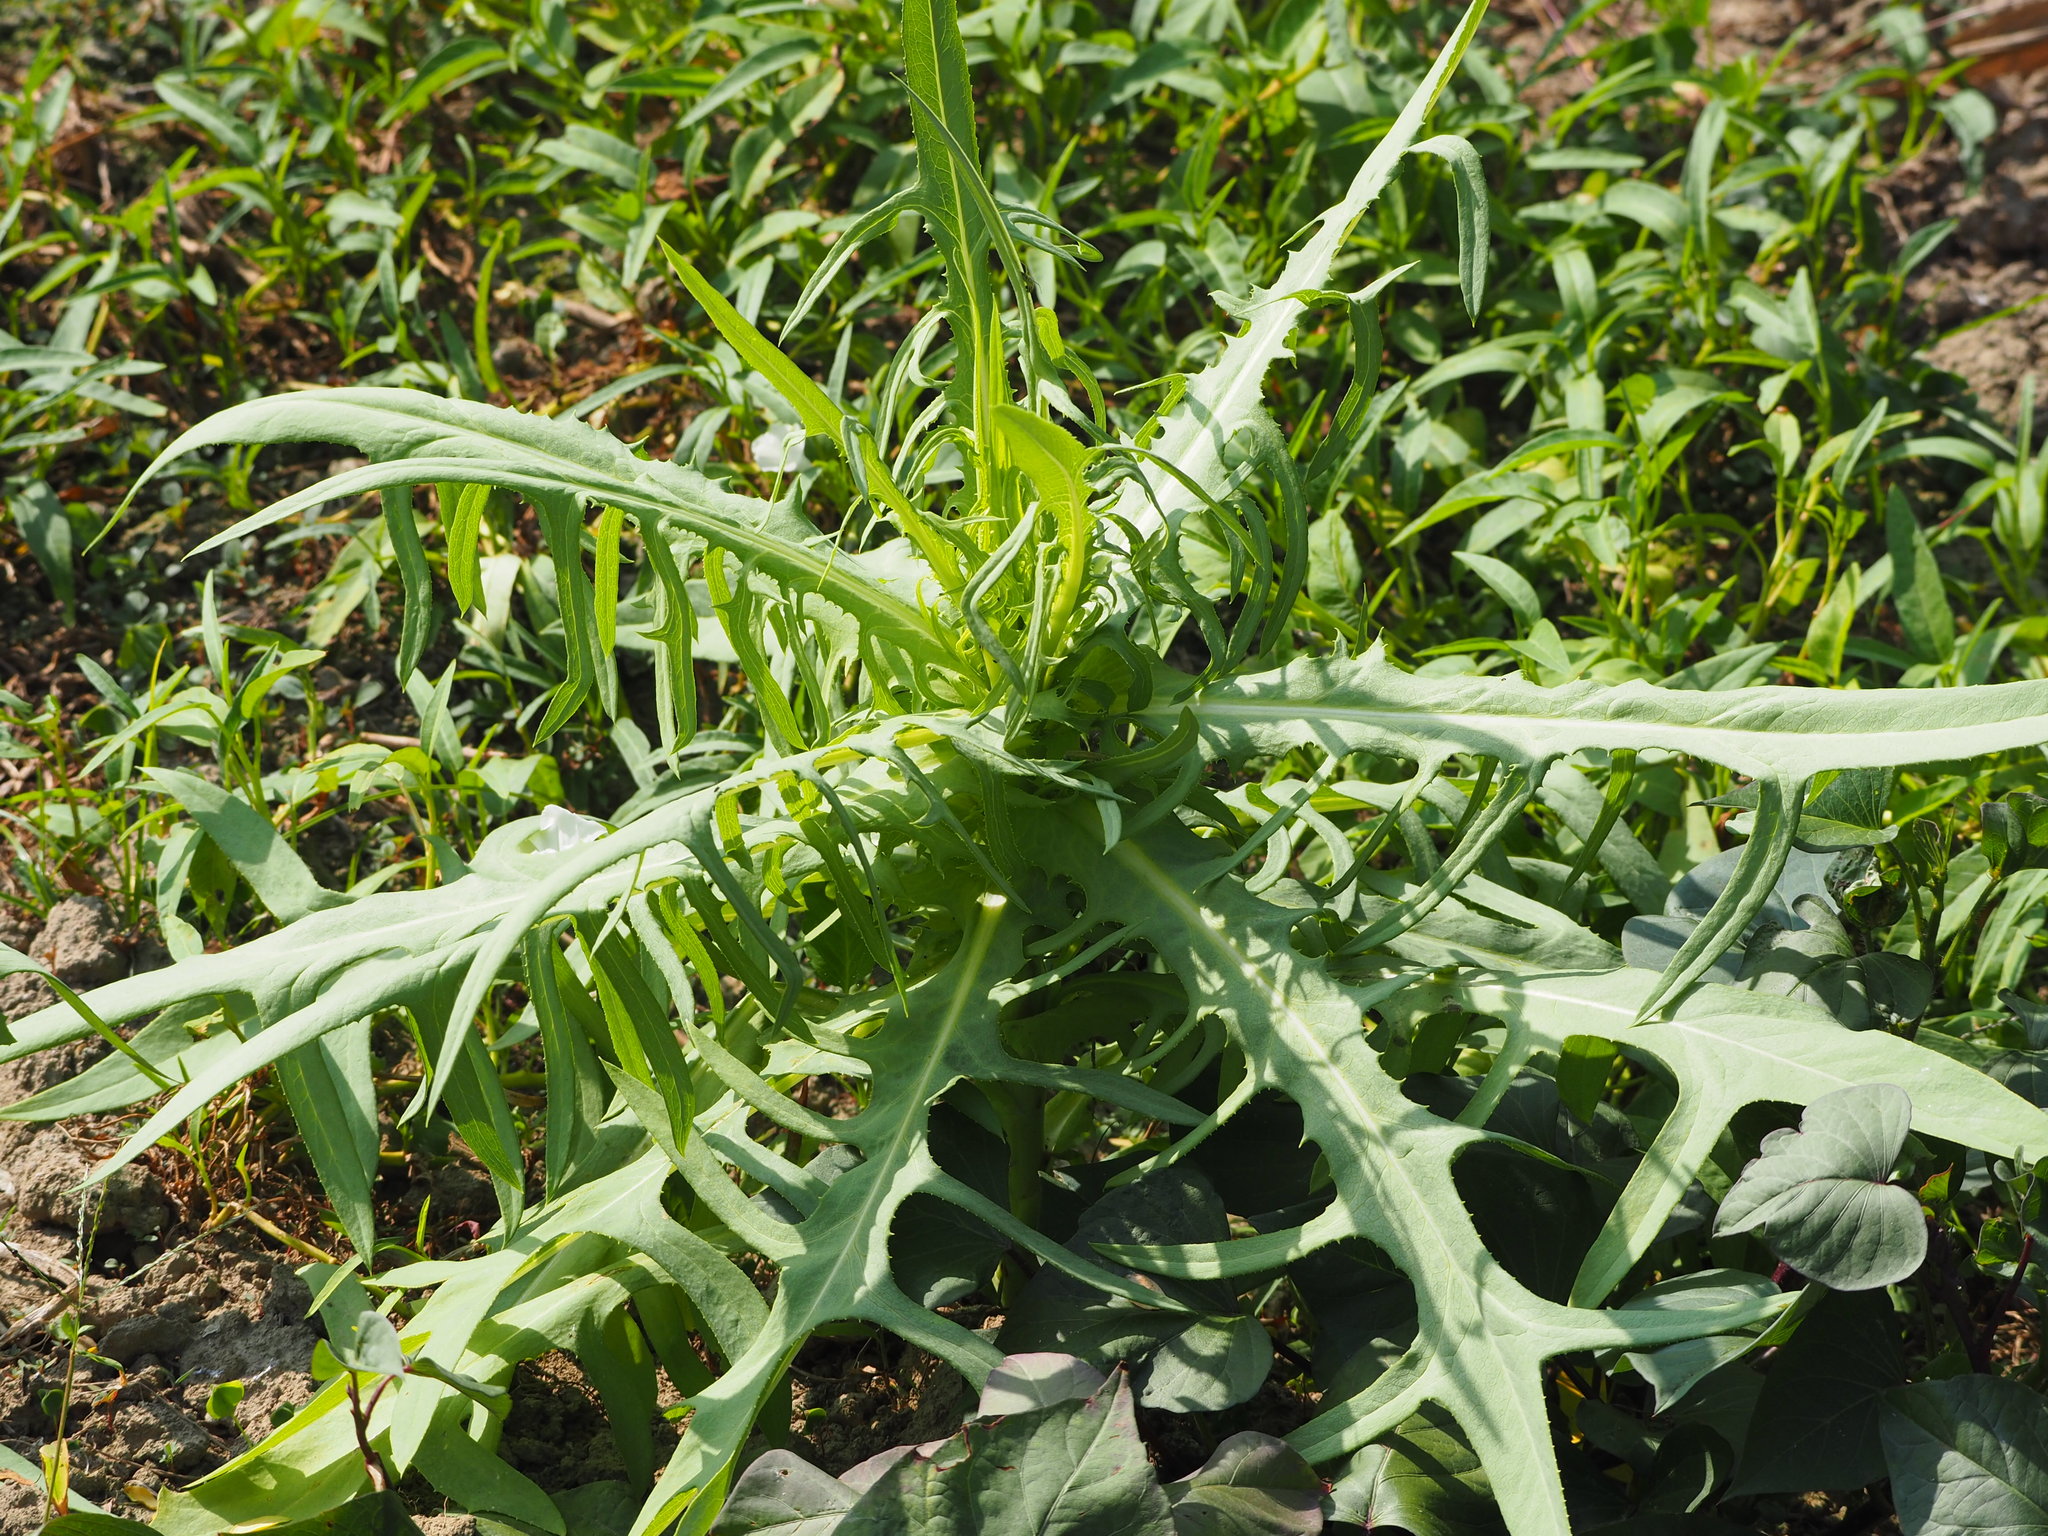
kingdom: Plantae
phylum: Tracheophyta
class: Magnoliopsida
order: Asterales
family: Asteraceae
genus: Lactuca
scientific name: Lactuca indica
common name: Wild lettuce
